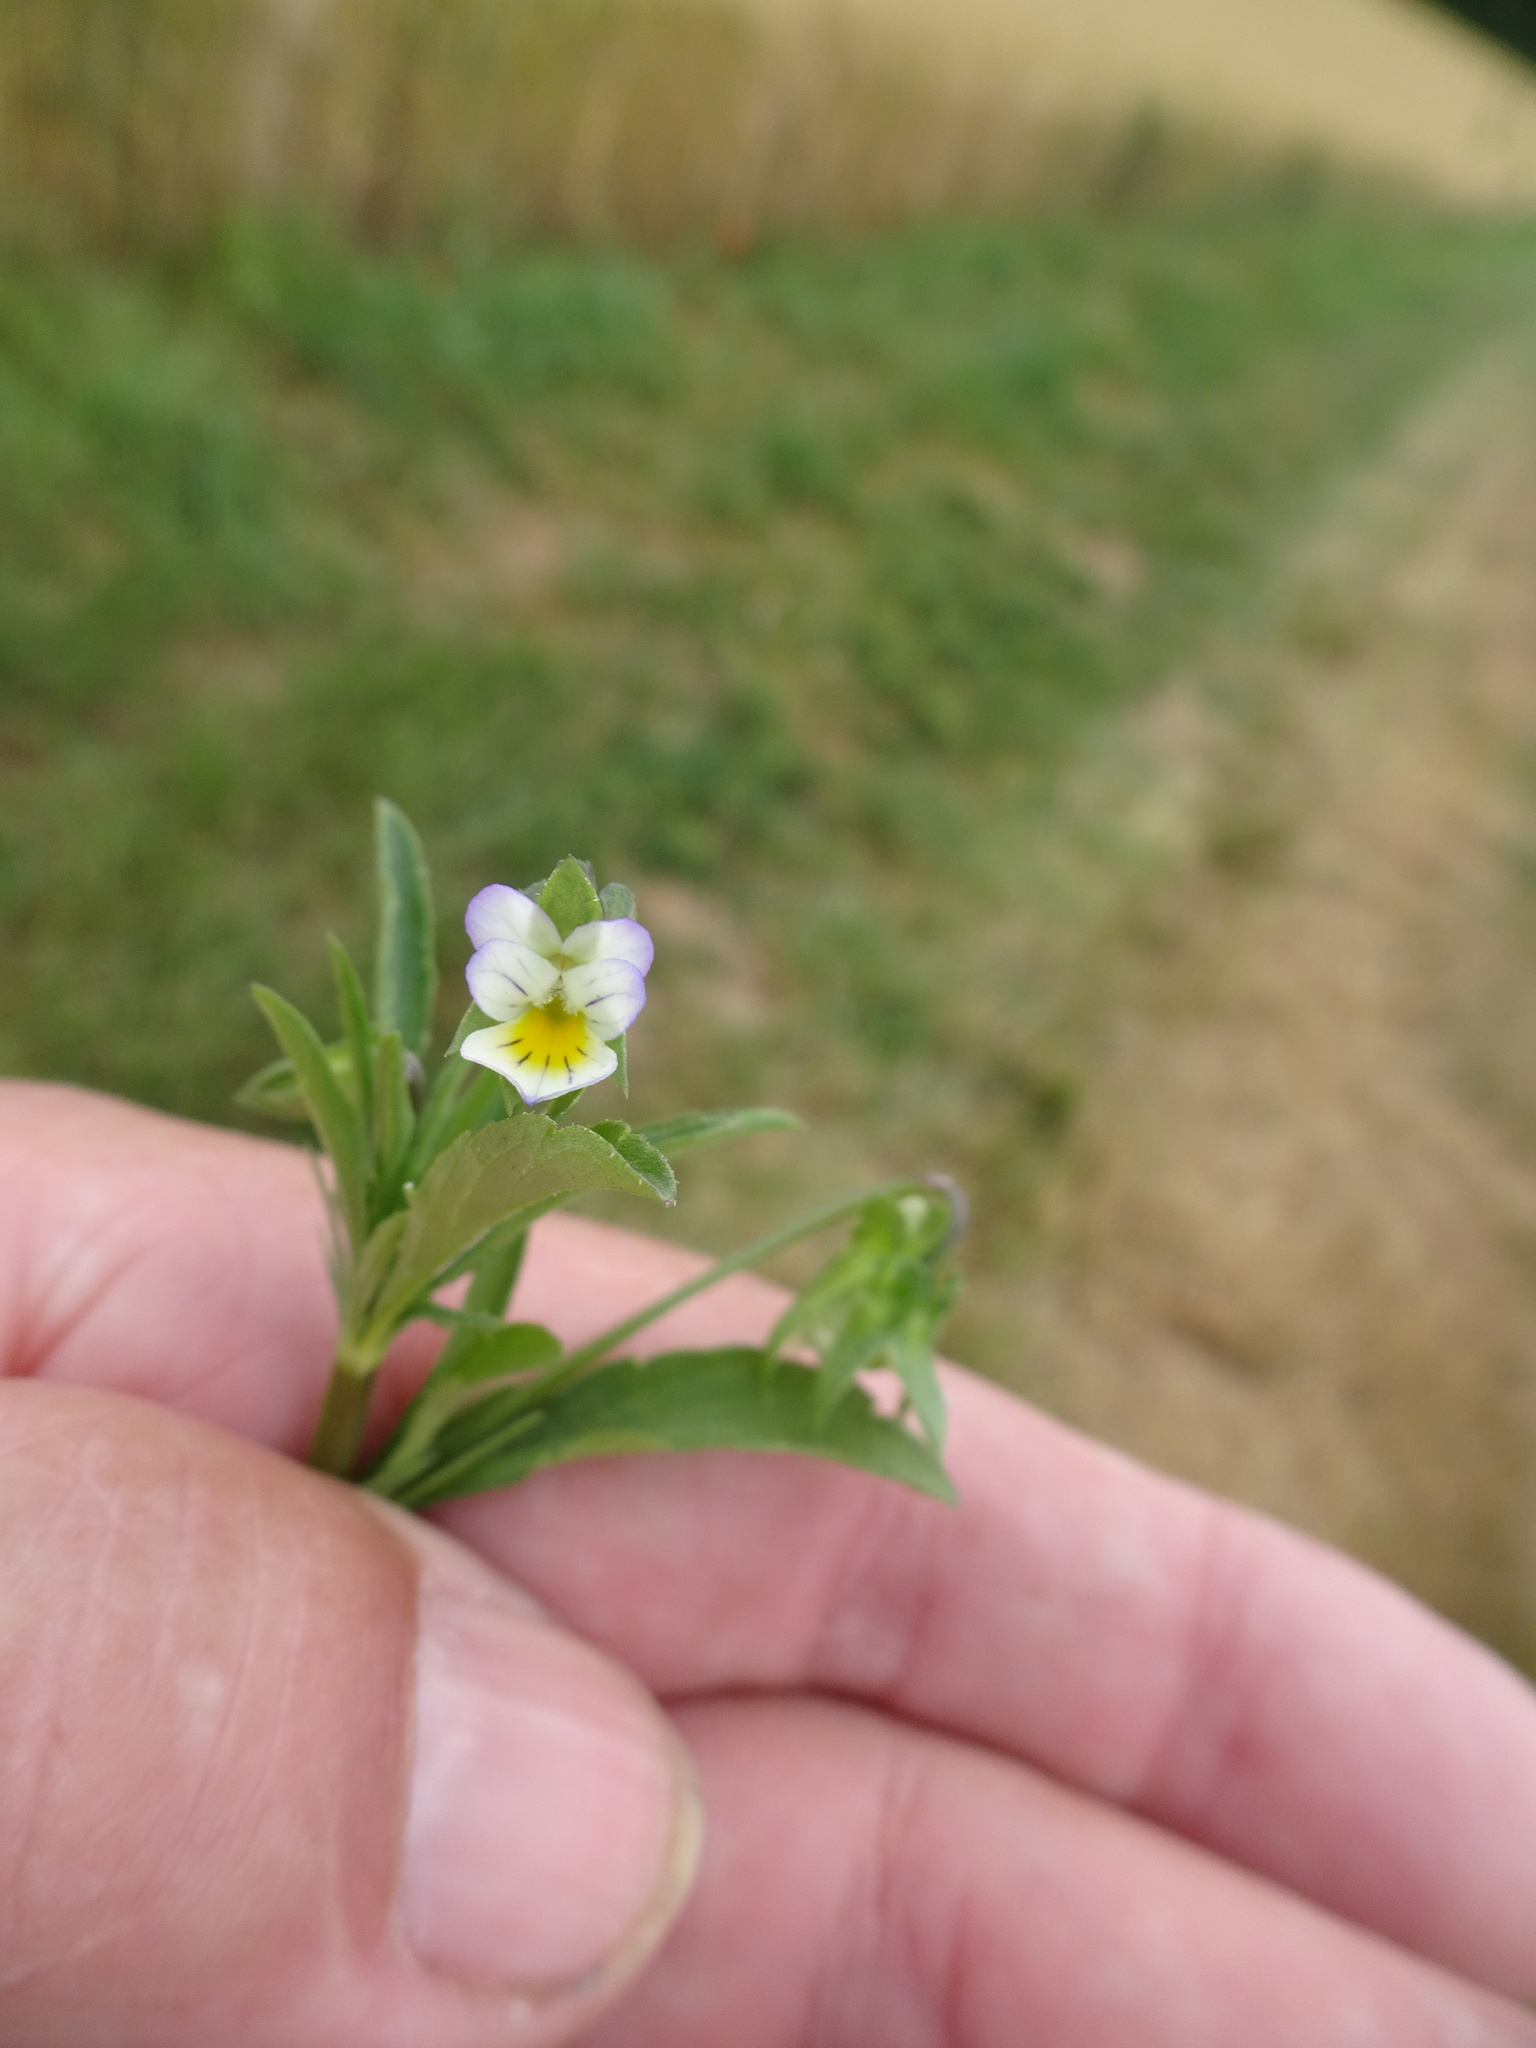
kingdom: Plantae
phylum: Tracheophyta
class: Magnoliopsida
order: Malpighiales
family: Violaceae
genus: Viola
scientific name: Viola arvensis
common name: Field pansy
